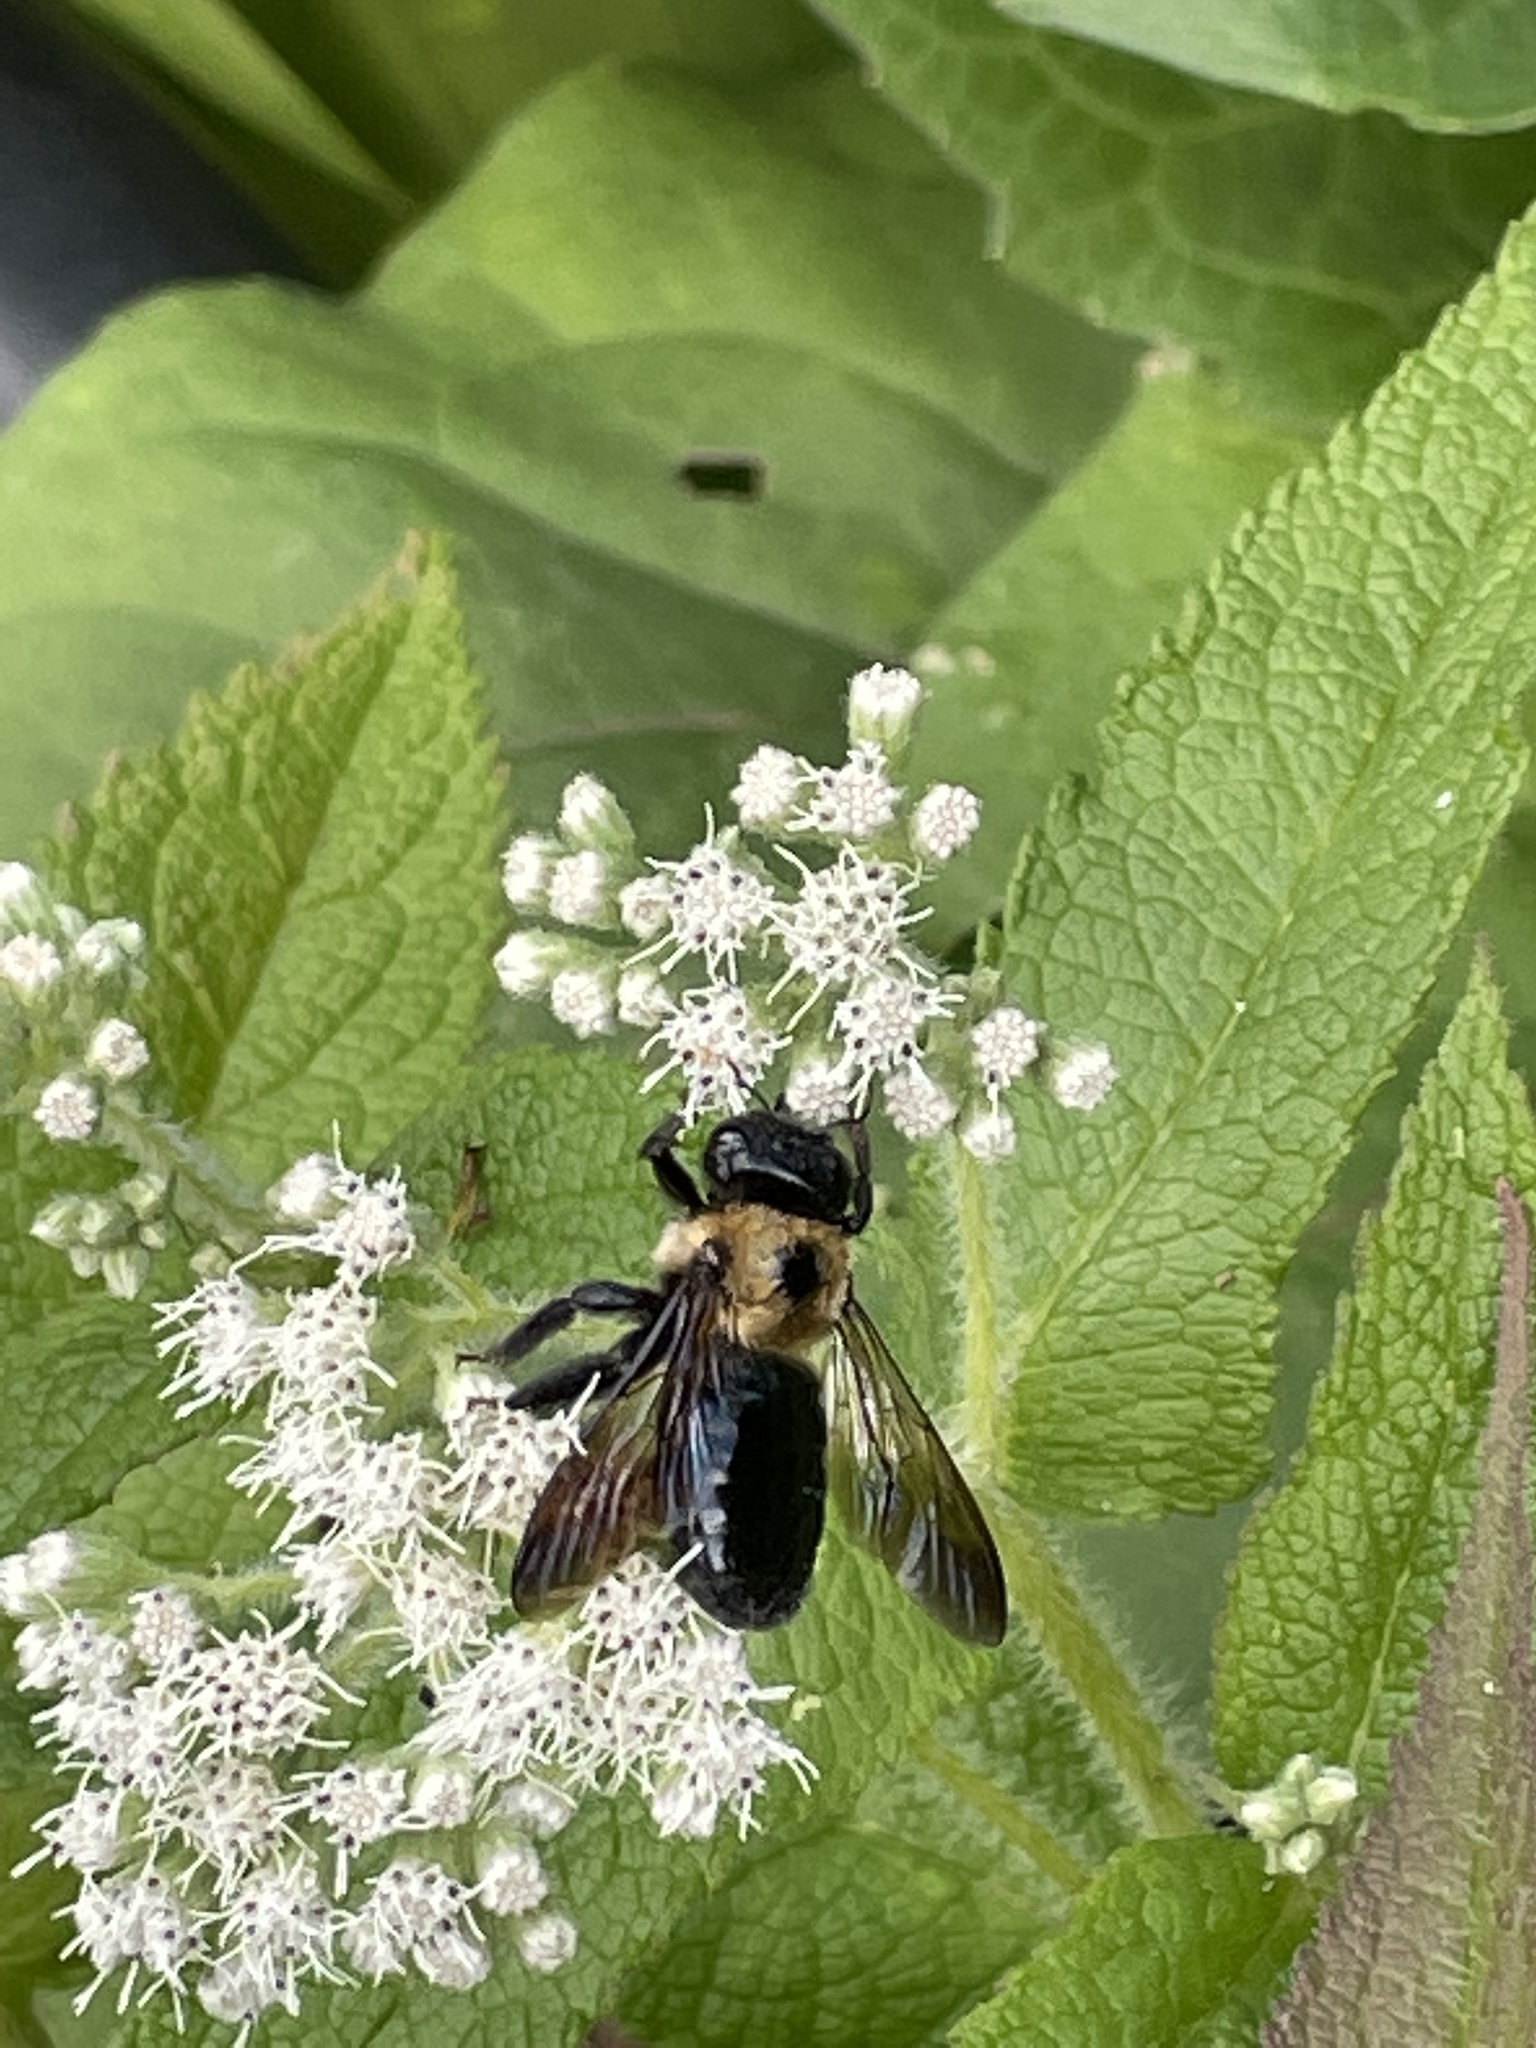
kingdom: Animalia
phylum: Arthropoda
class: Insecta
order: Hymenoptera
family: Apidae
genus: Xylocopa
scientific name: Xylocopa virginica
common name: Carpenter bee
